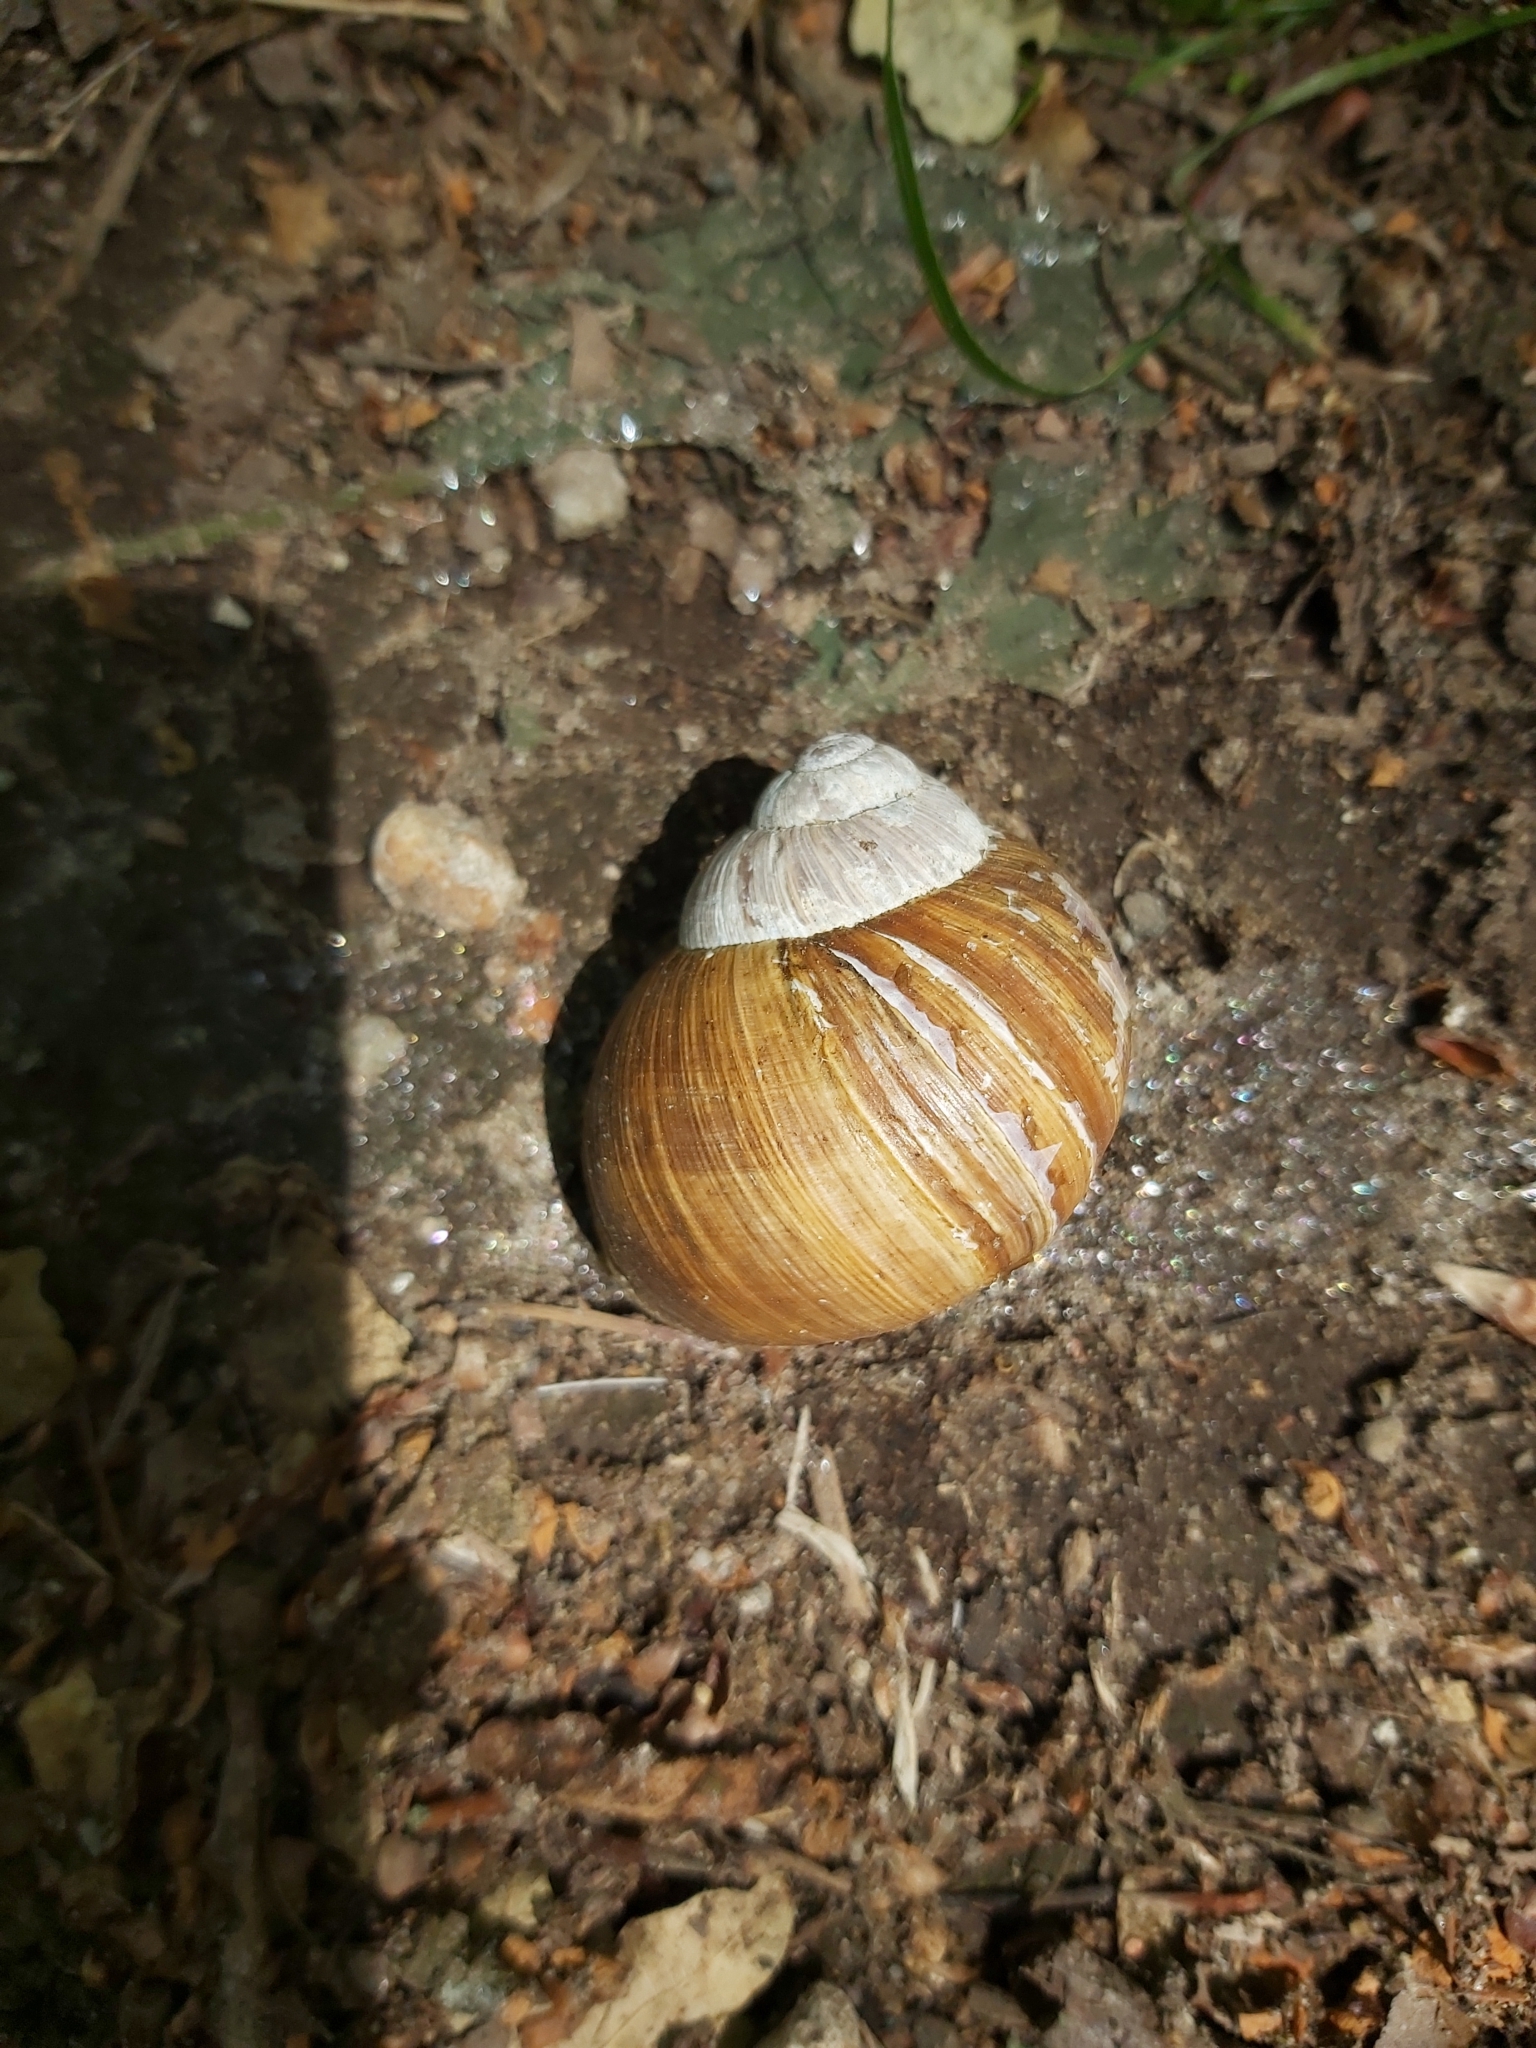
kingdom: Animalia
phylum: Mollusca
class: Gastropoda
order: Stylommatophora
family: Helicidae
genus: Helix
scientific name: Helix pomatia
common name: Roman snail
